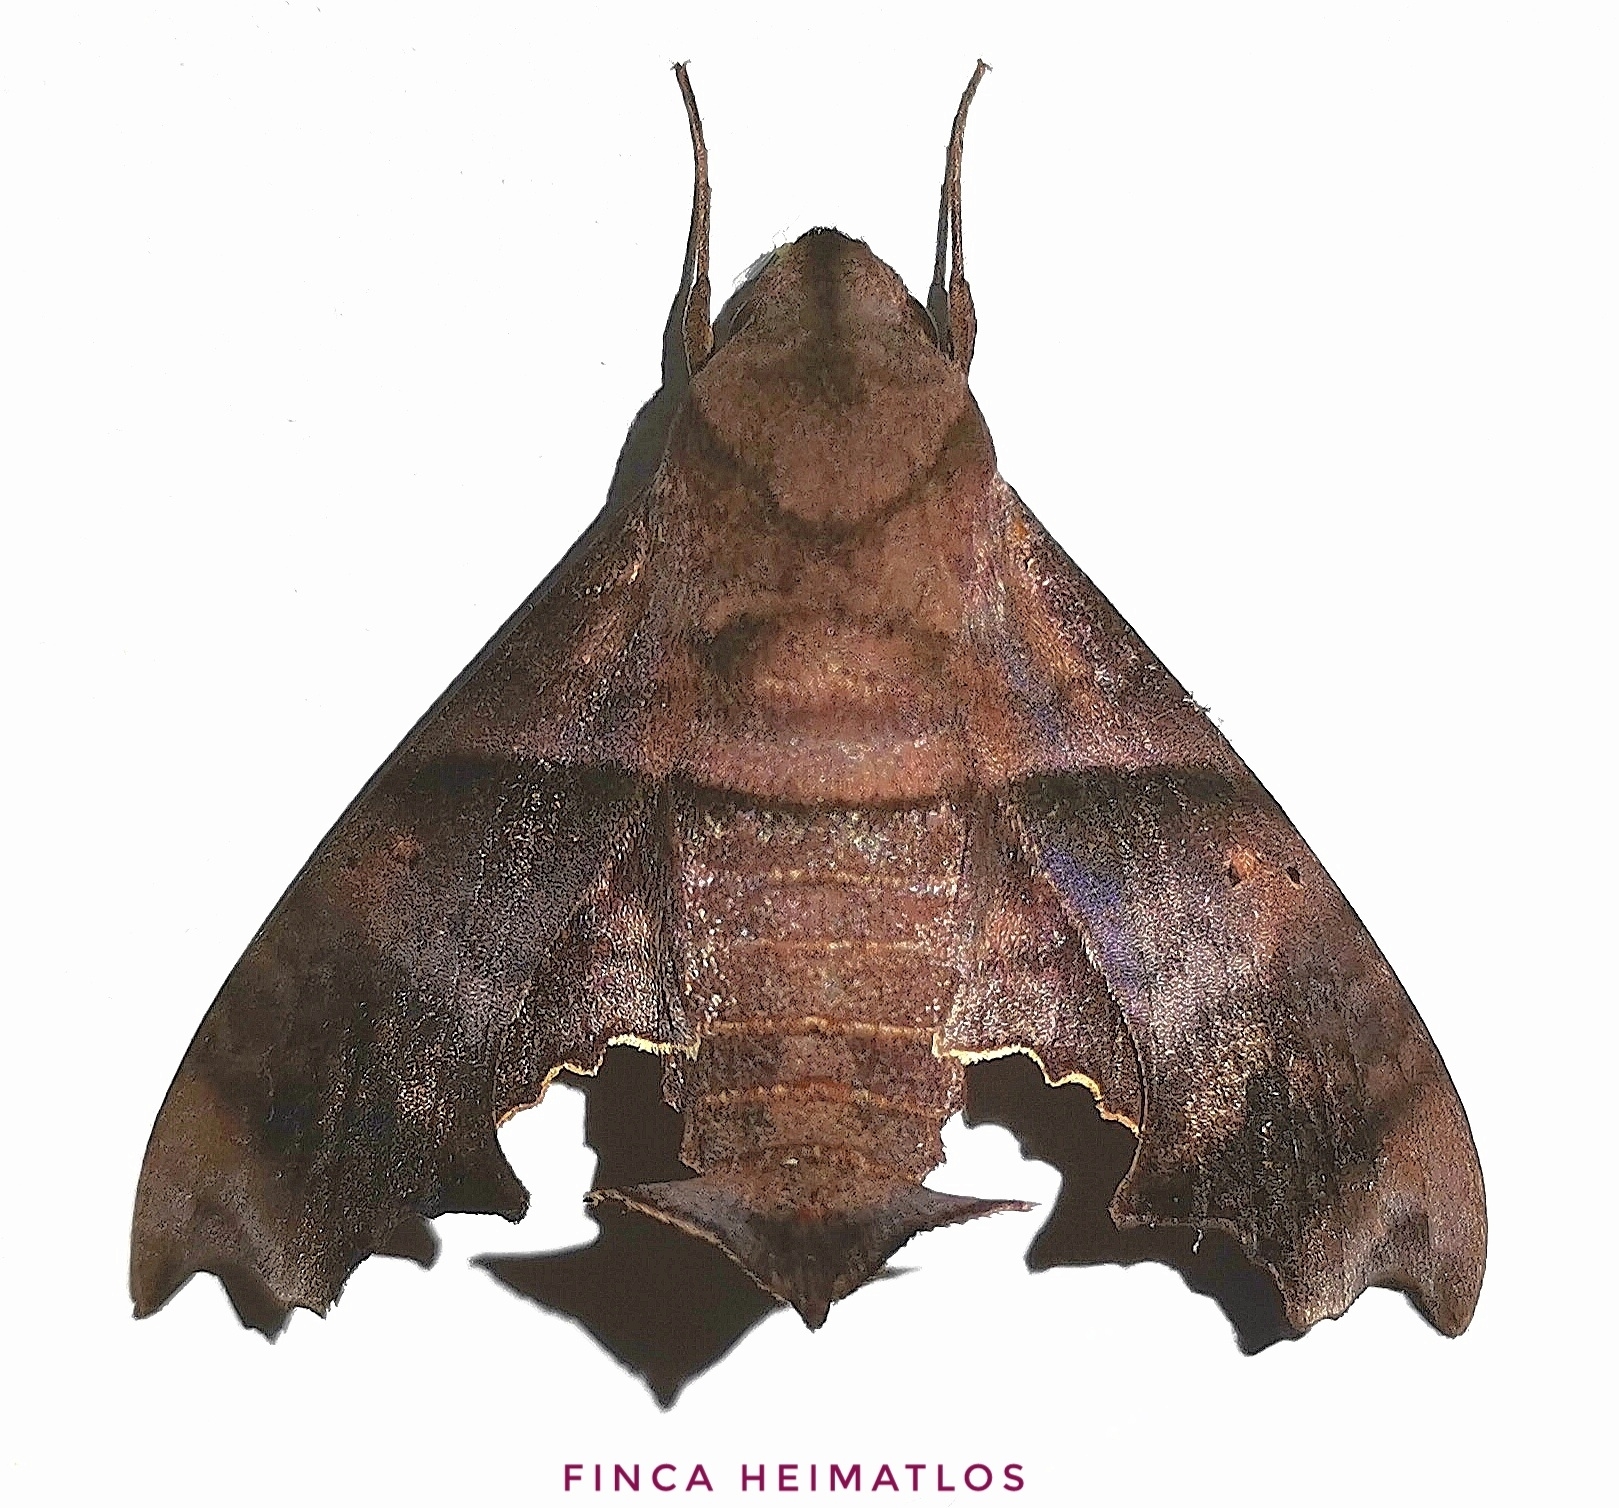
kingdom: Animalia
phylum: Arthropoda
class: Insecta
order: Lepidoptera
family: Sphingidae
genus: Perigonia
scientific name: Perigonia stulta
